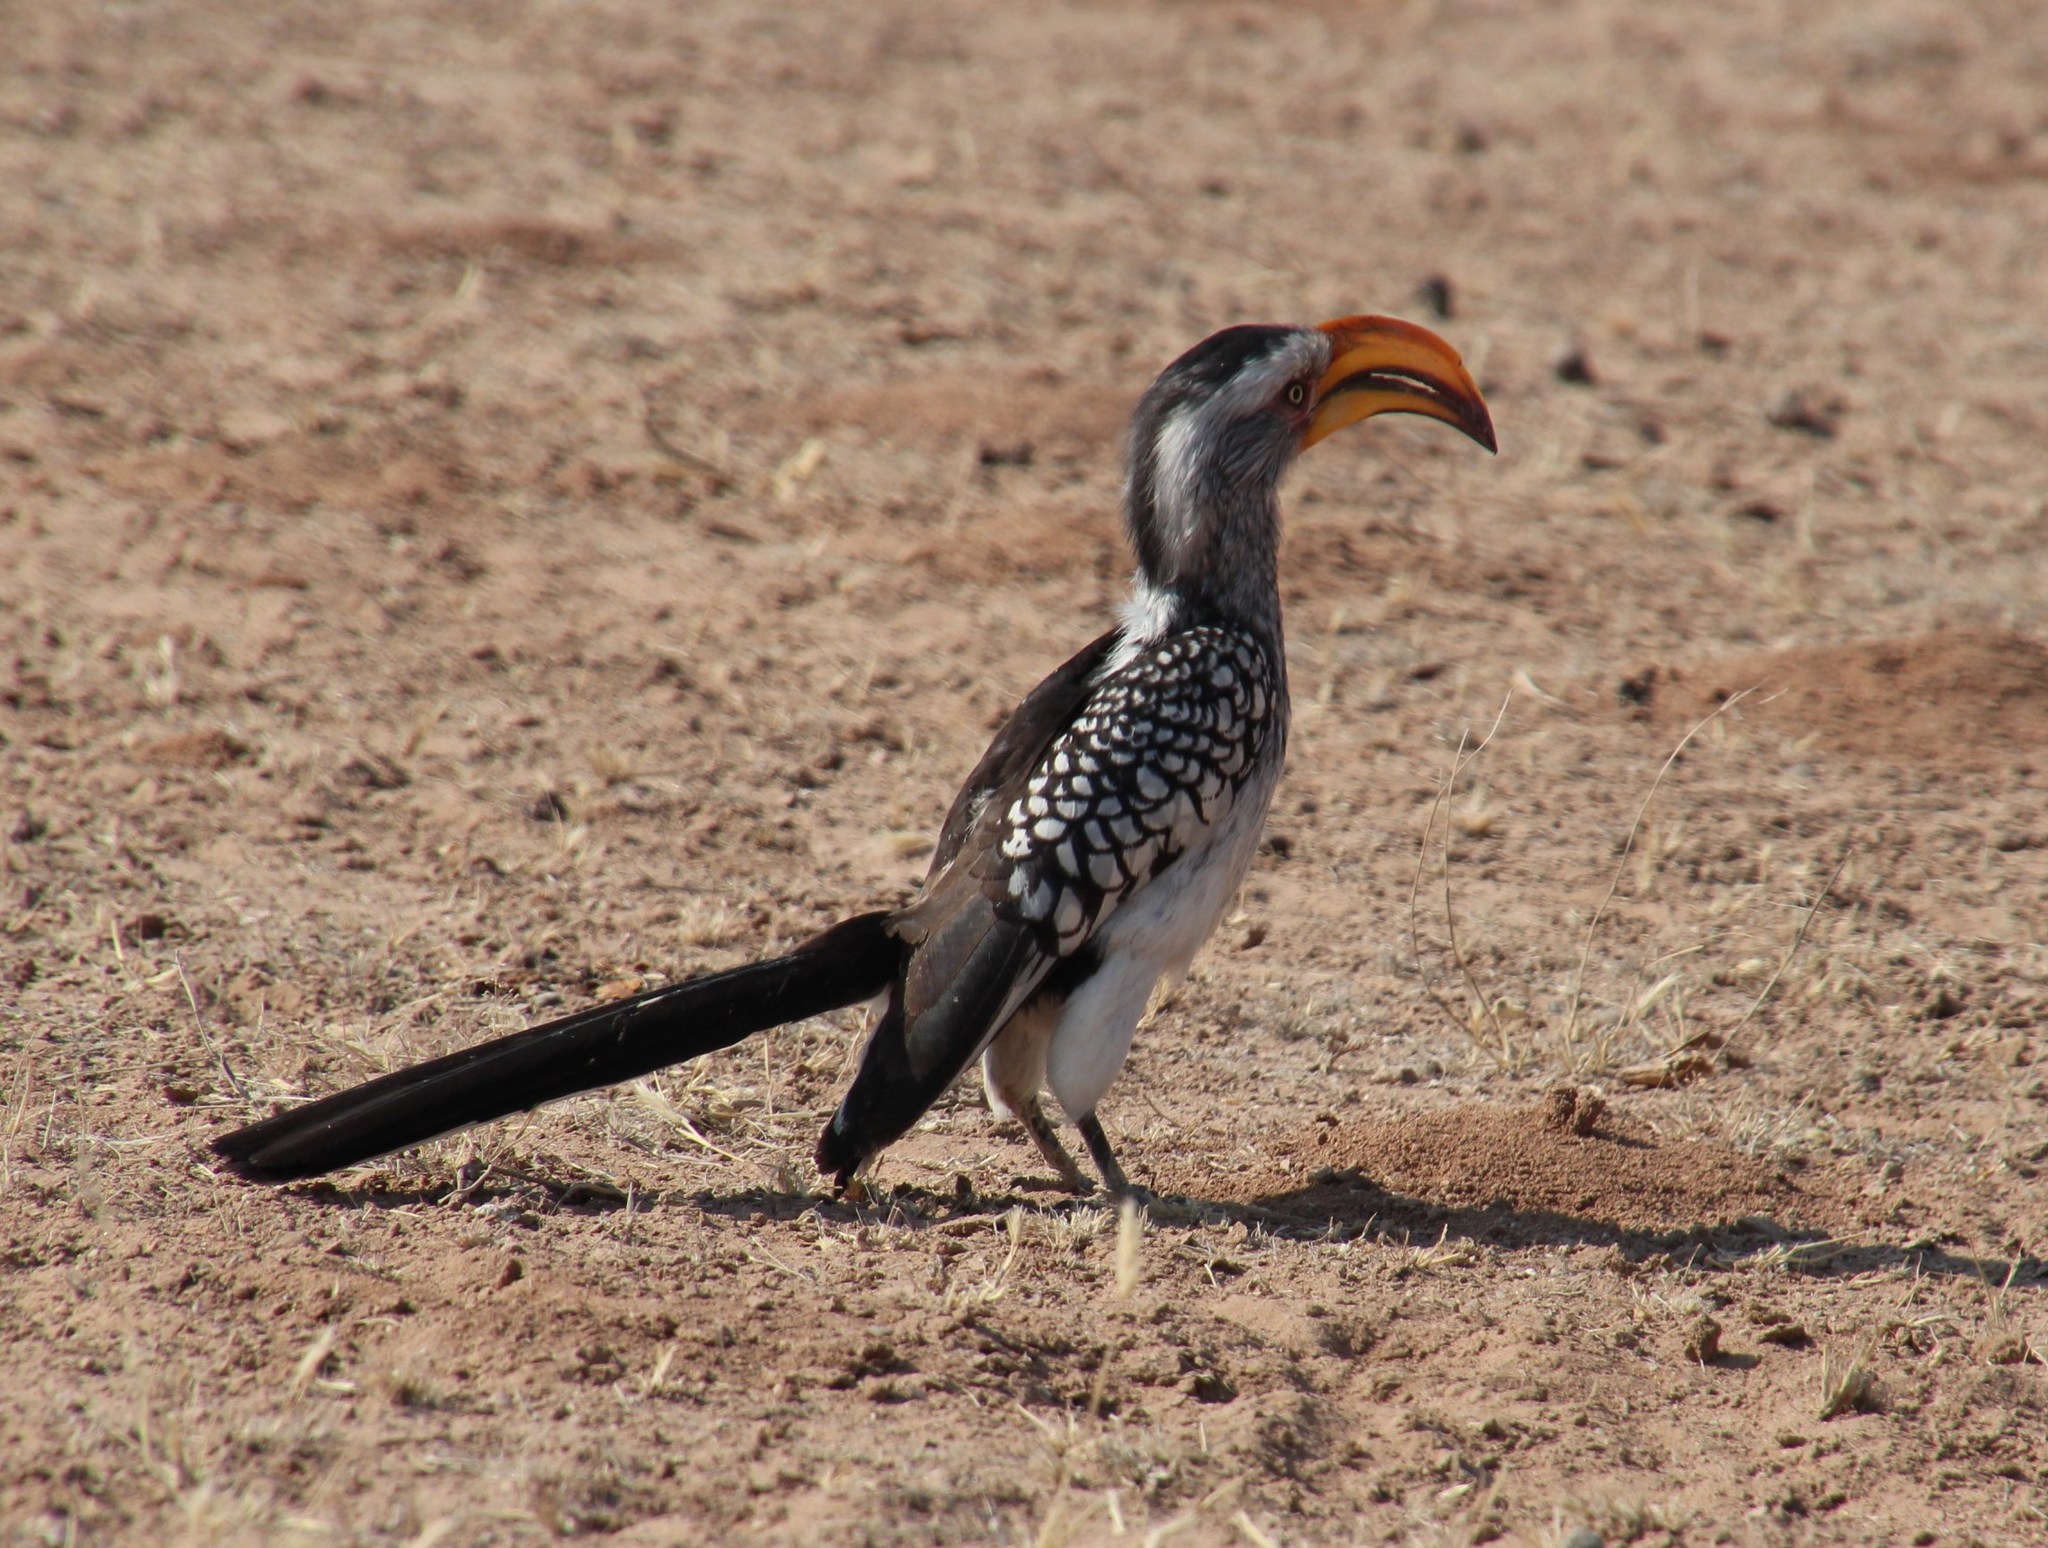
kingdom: Animalia
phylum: Chordata
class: Aves
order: Bucerotiformes
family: Bucerotidae
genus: Tockus
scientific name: Tockus leucomelas
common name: Southern yellow-billed hornbill
